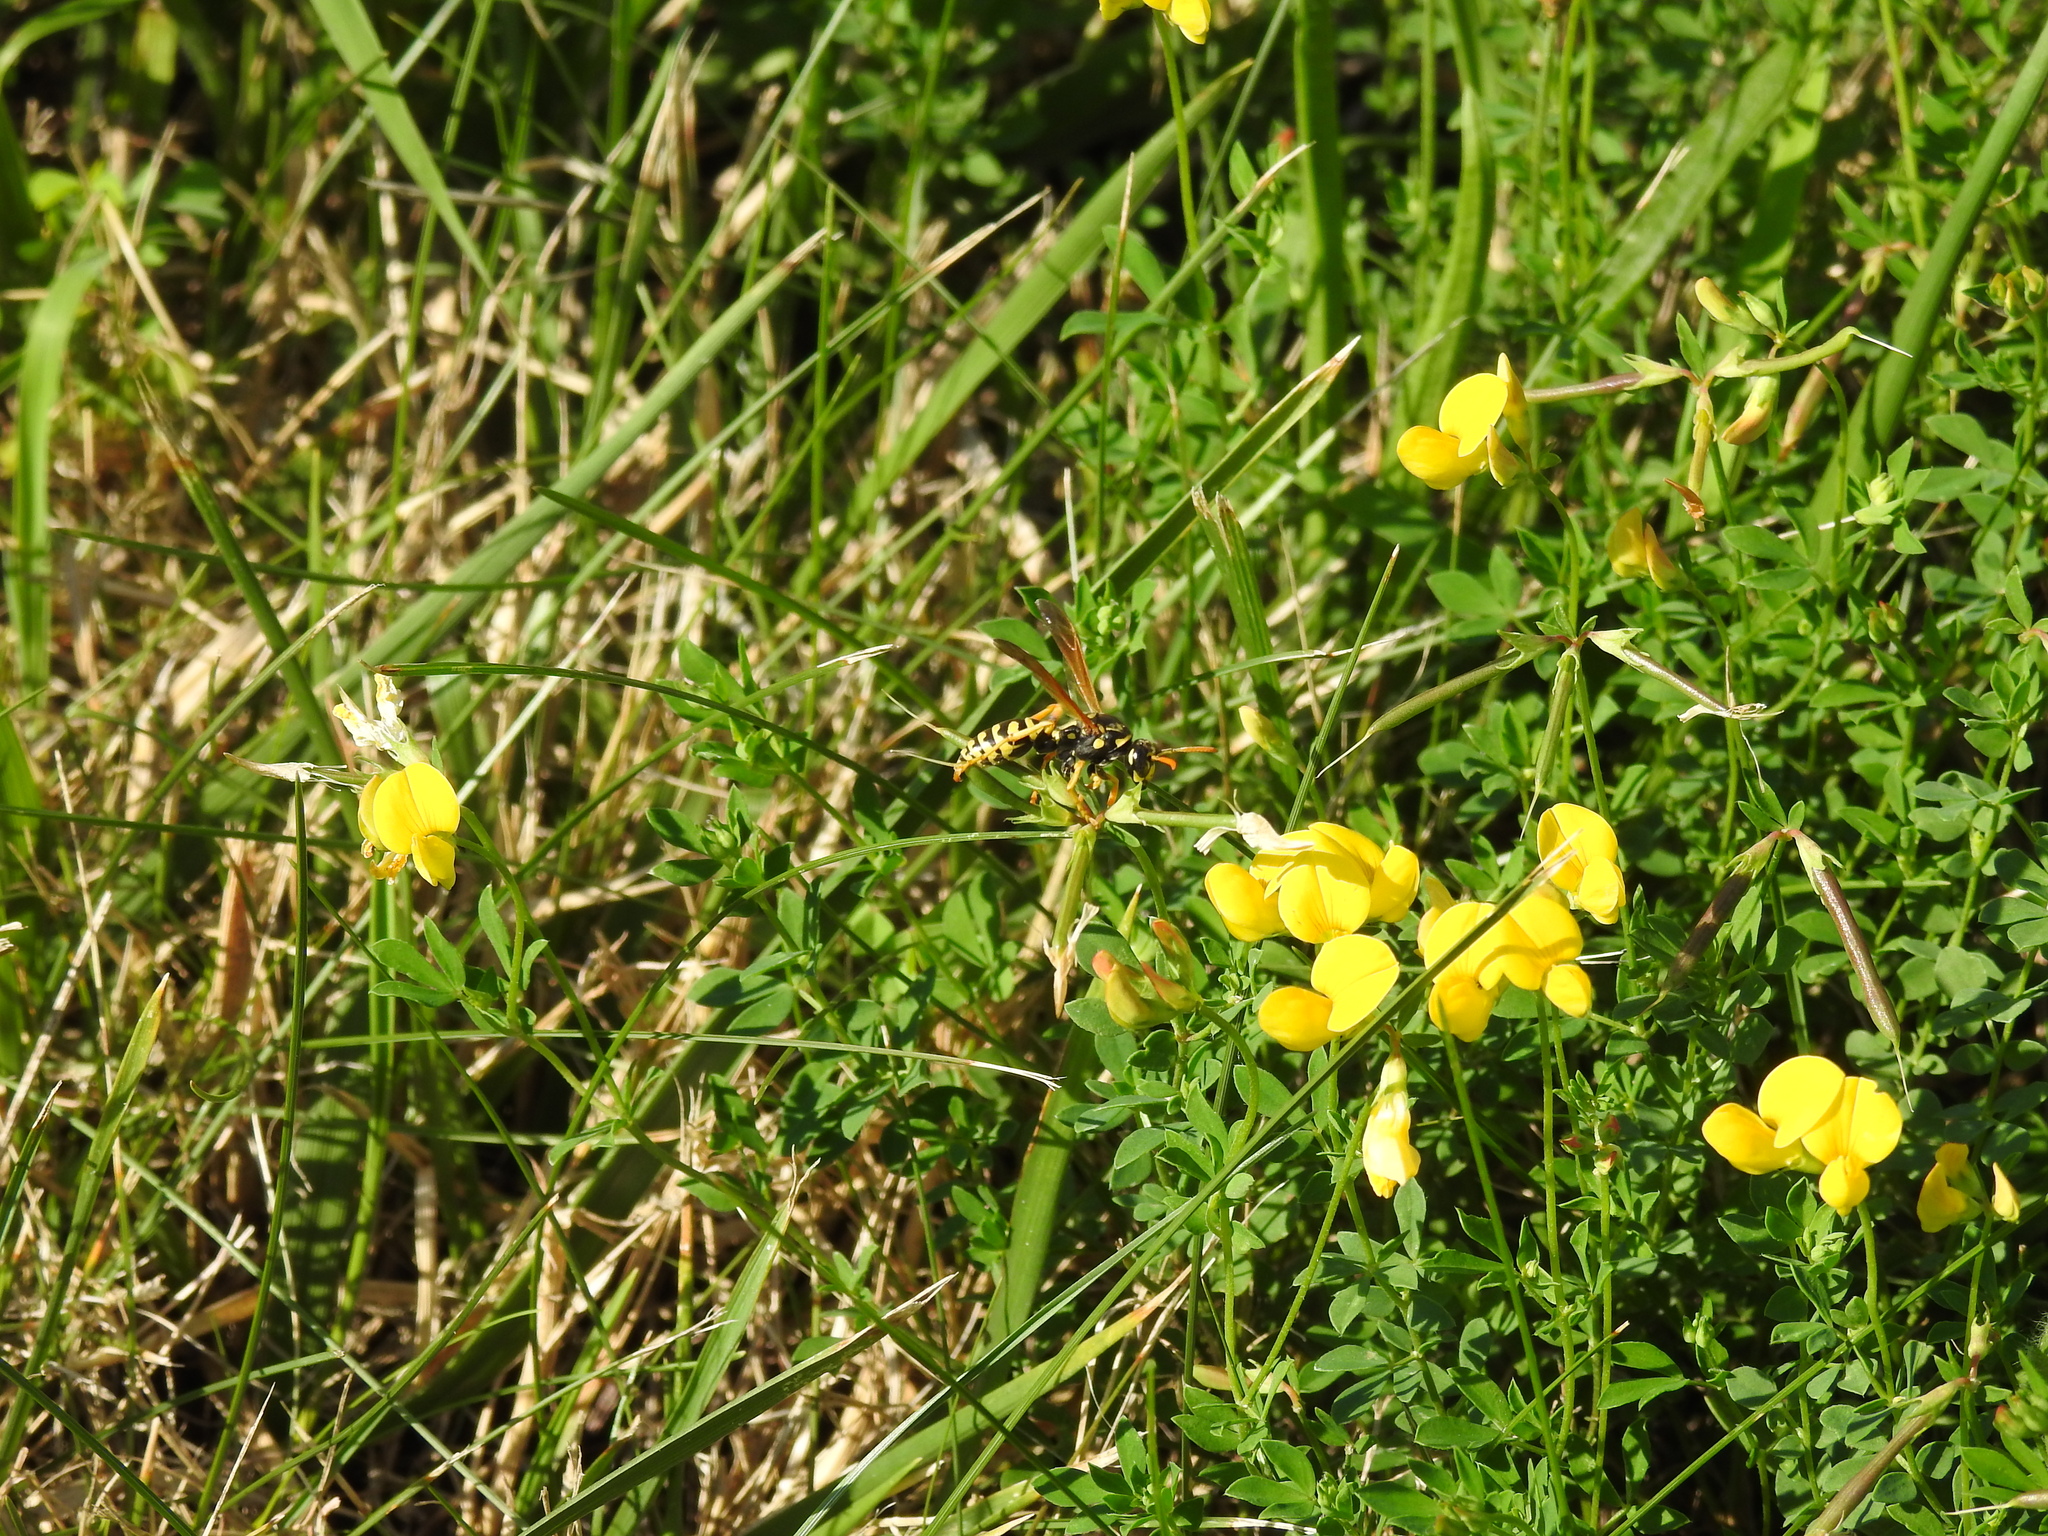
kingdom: Animalia
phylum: Arthropoda
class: Insecta
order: Hymenoptera
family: Eumenidae
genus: Polistes
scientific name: Polistes dominula
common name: Paper wasp
